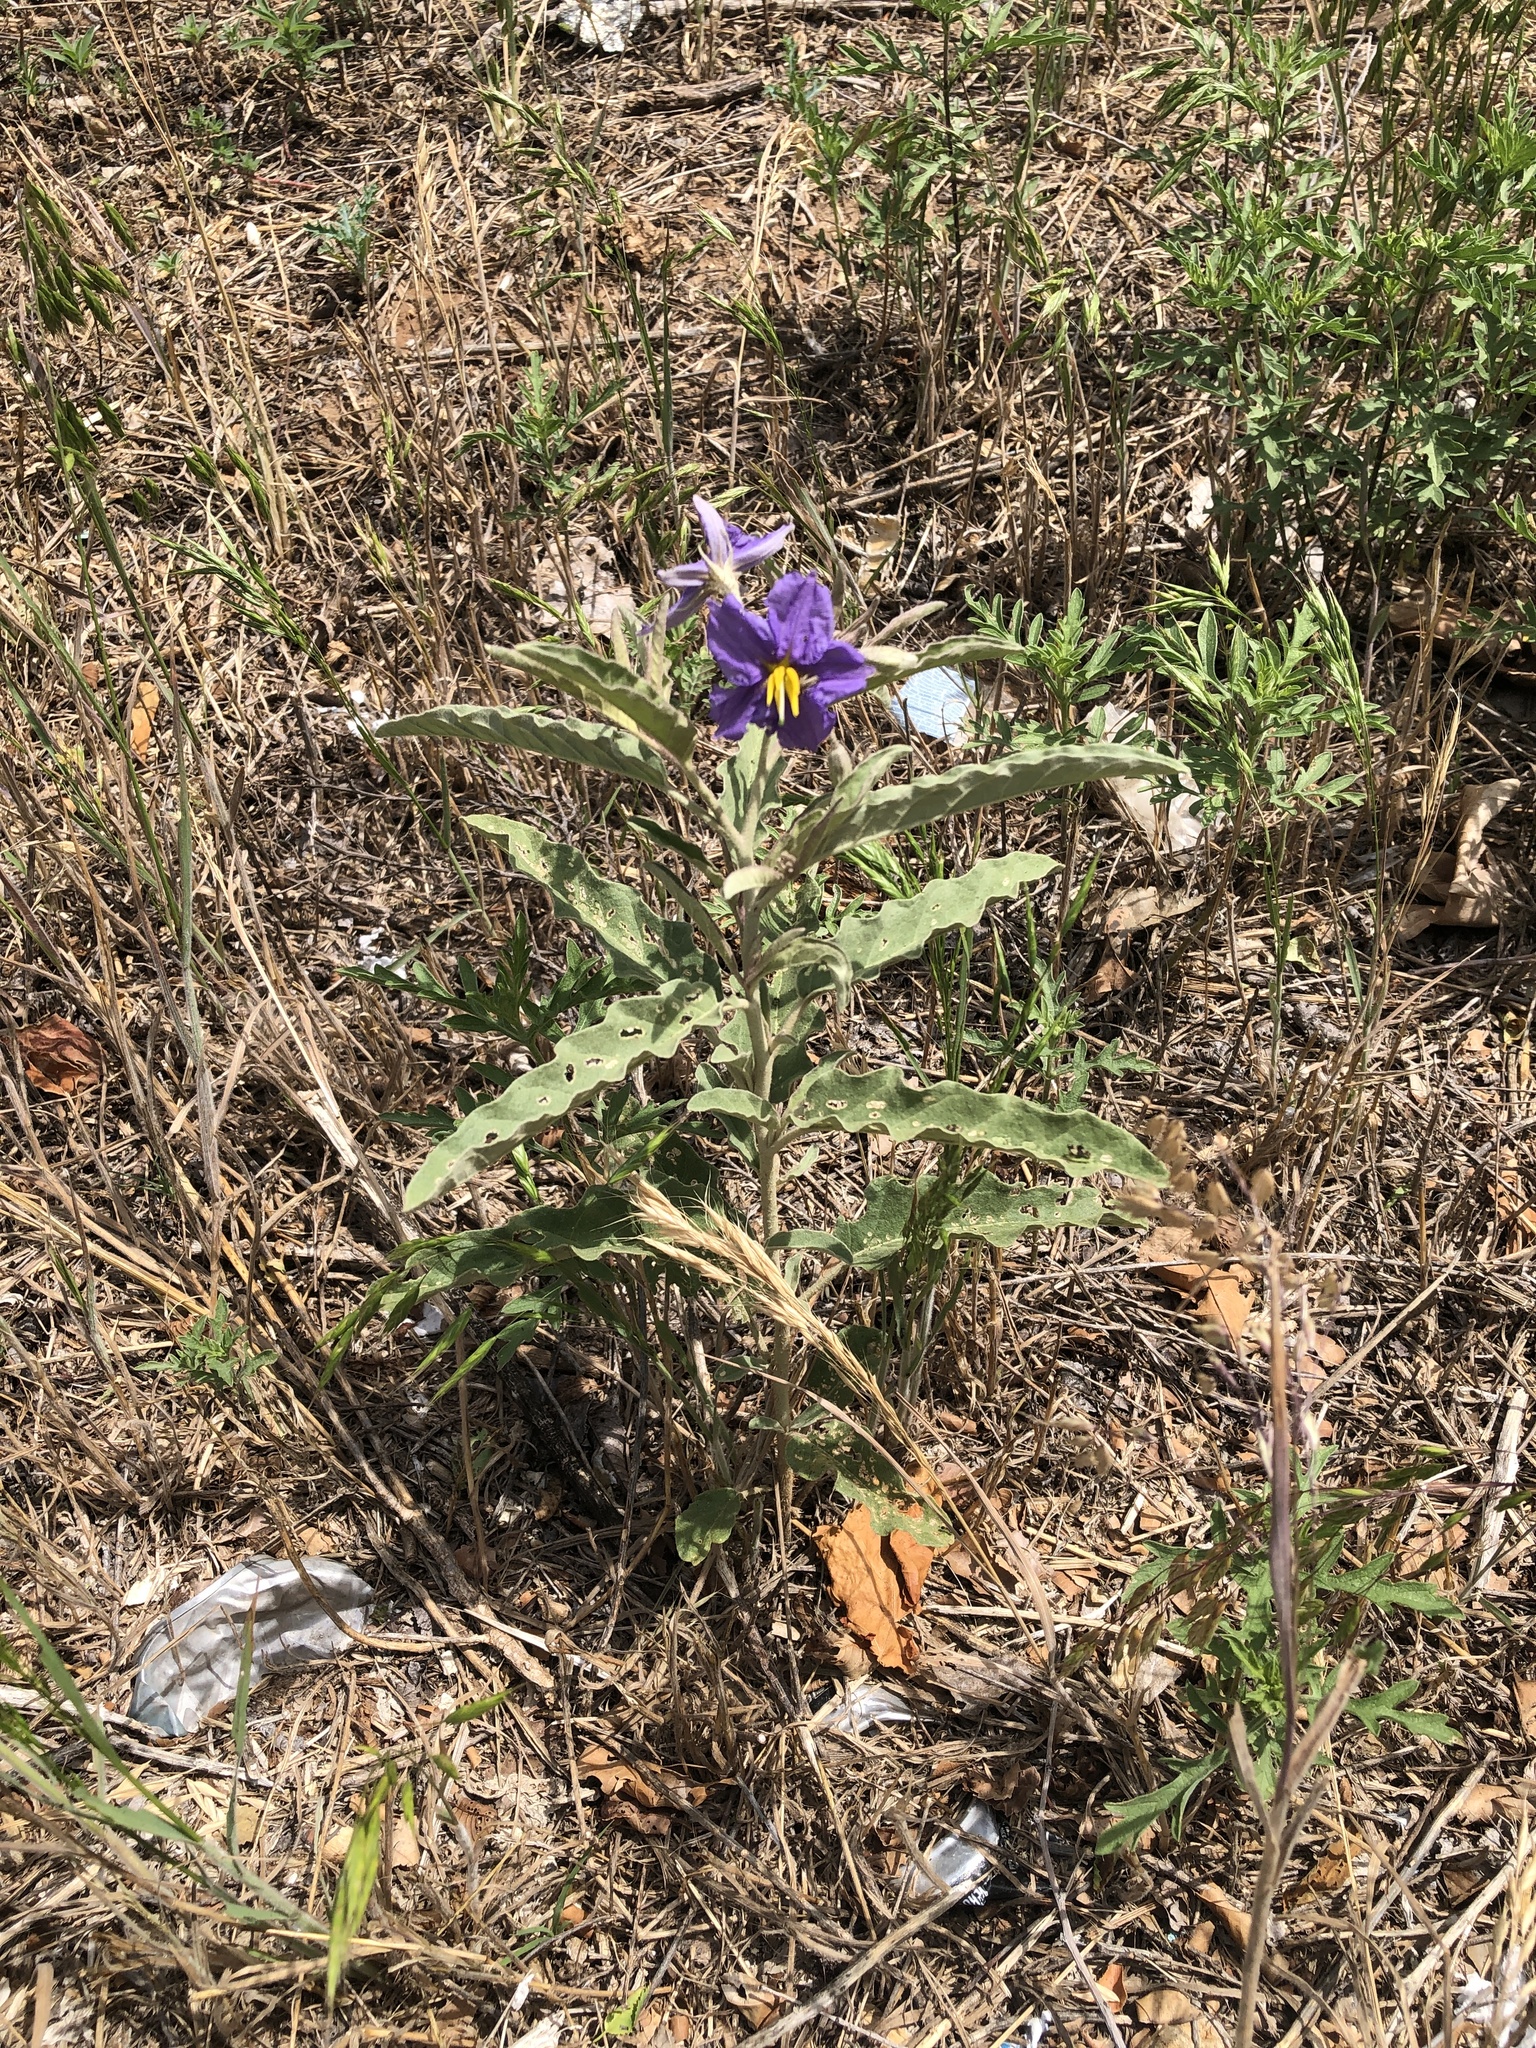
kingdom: Plantae
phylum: Tracheophyta
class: Magnoliopsida
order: Solanales
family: Solanaceae
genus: Solanum
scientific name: Solanum elaeagnifolium
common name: Silverleaf nightshade
